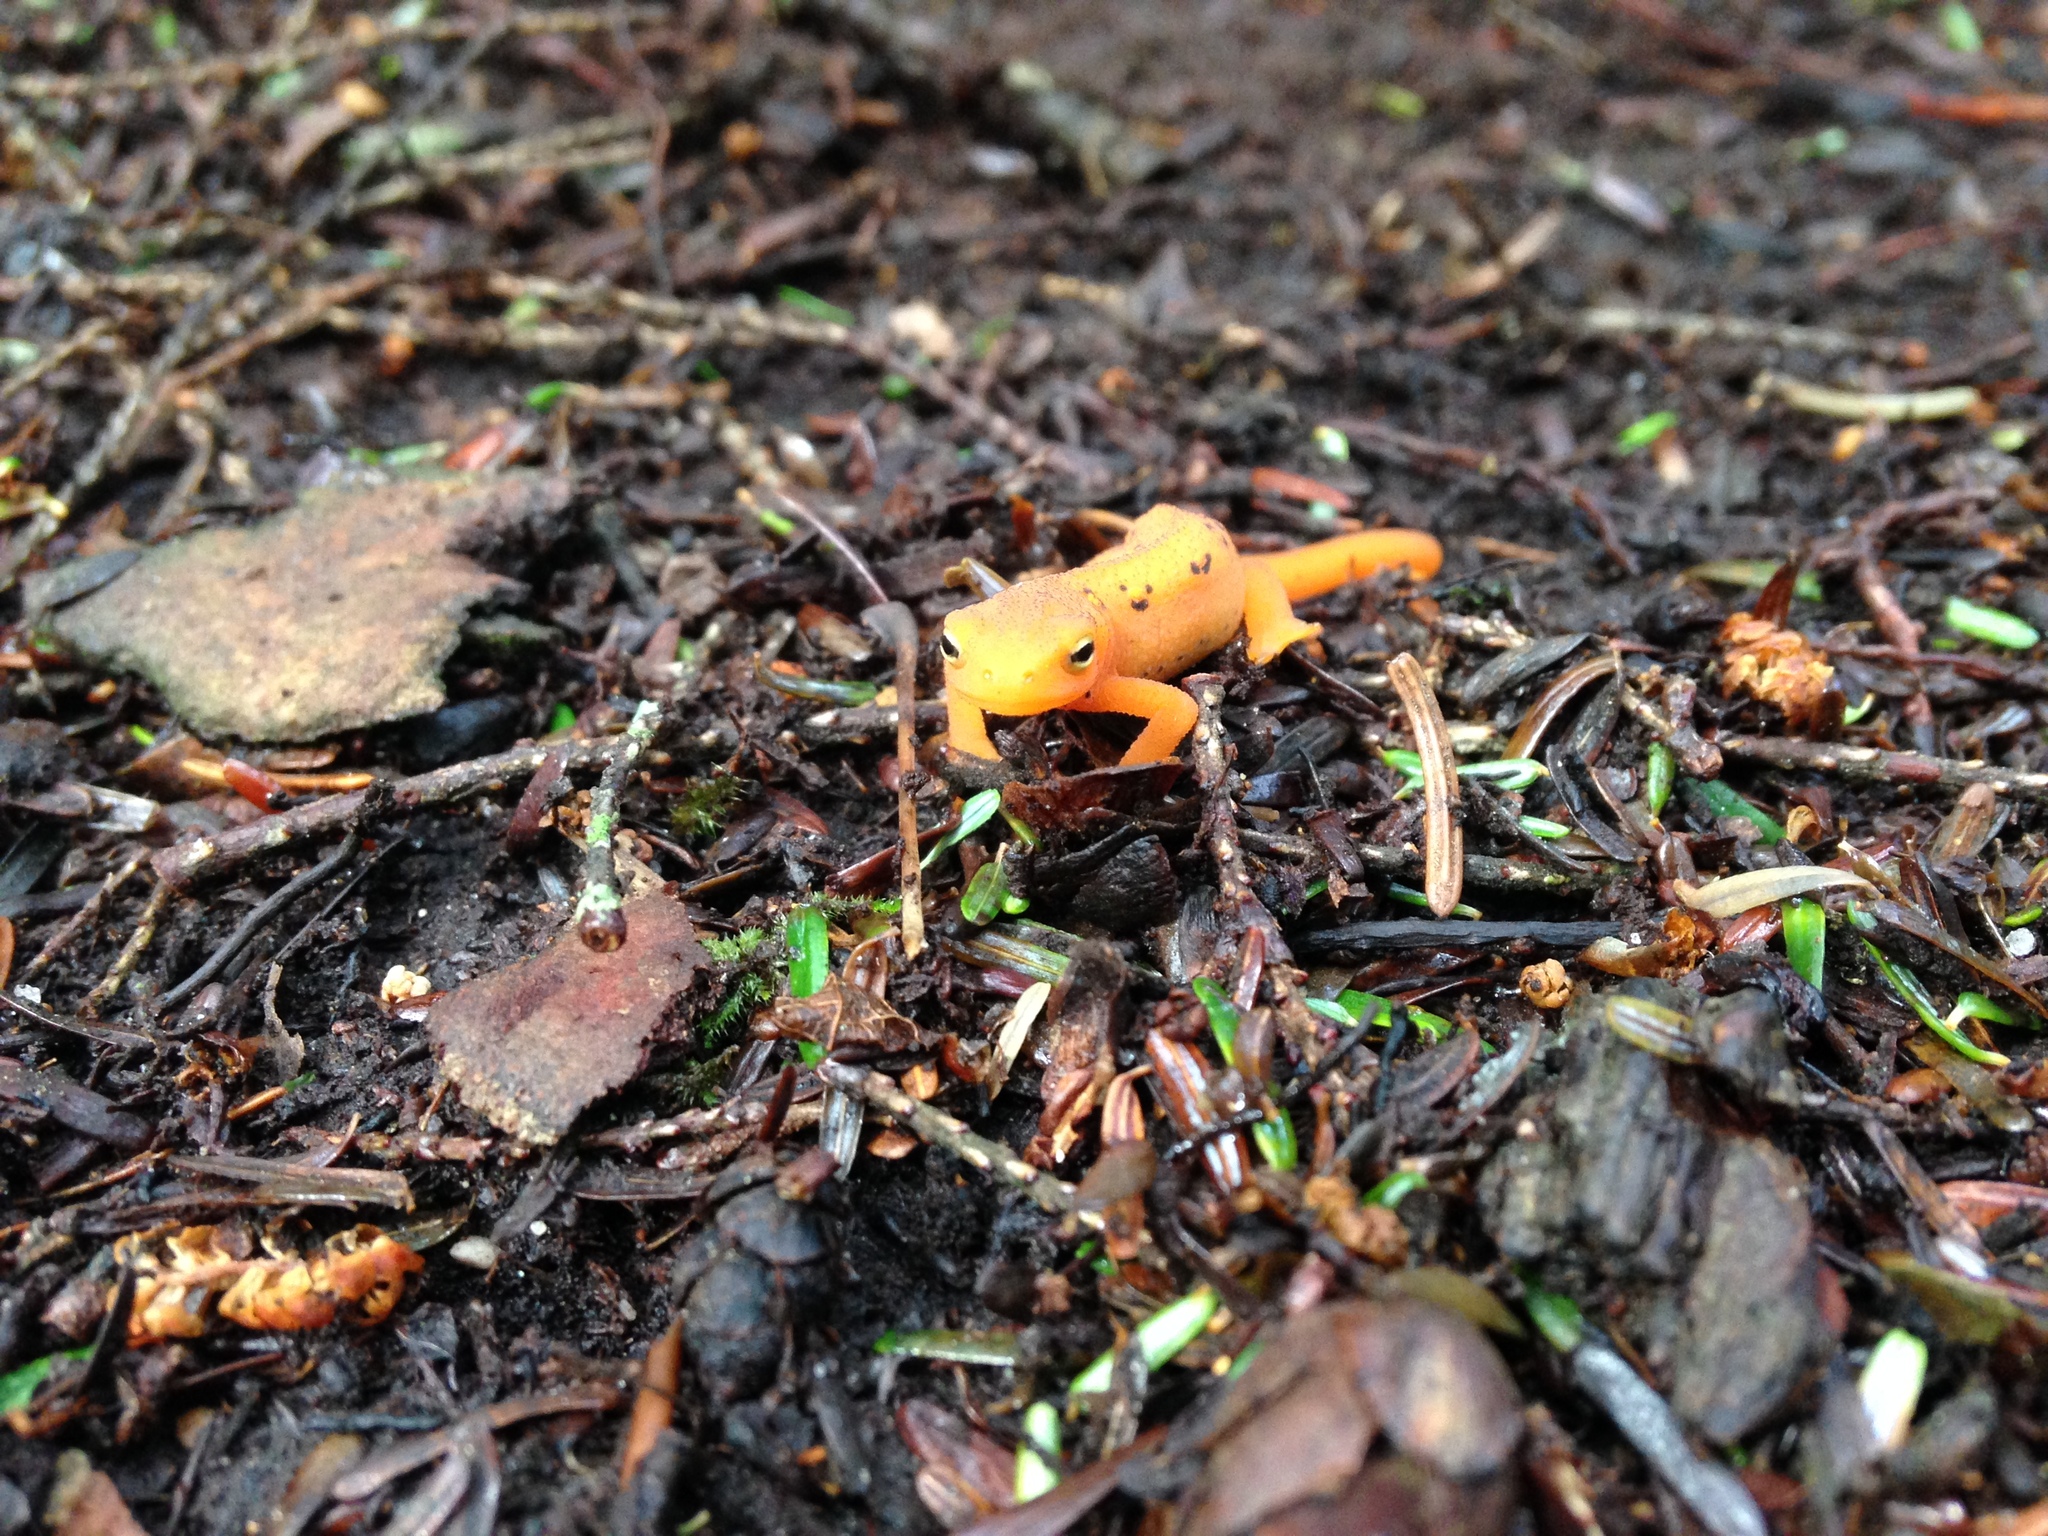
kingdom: Animalia
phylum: Chordata
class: Amphibia
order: Caudata
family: Salamandridae
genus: Notophthalmus
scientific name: Notophthalmus viridescens
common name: Eastern newt
